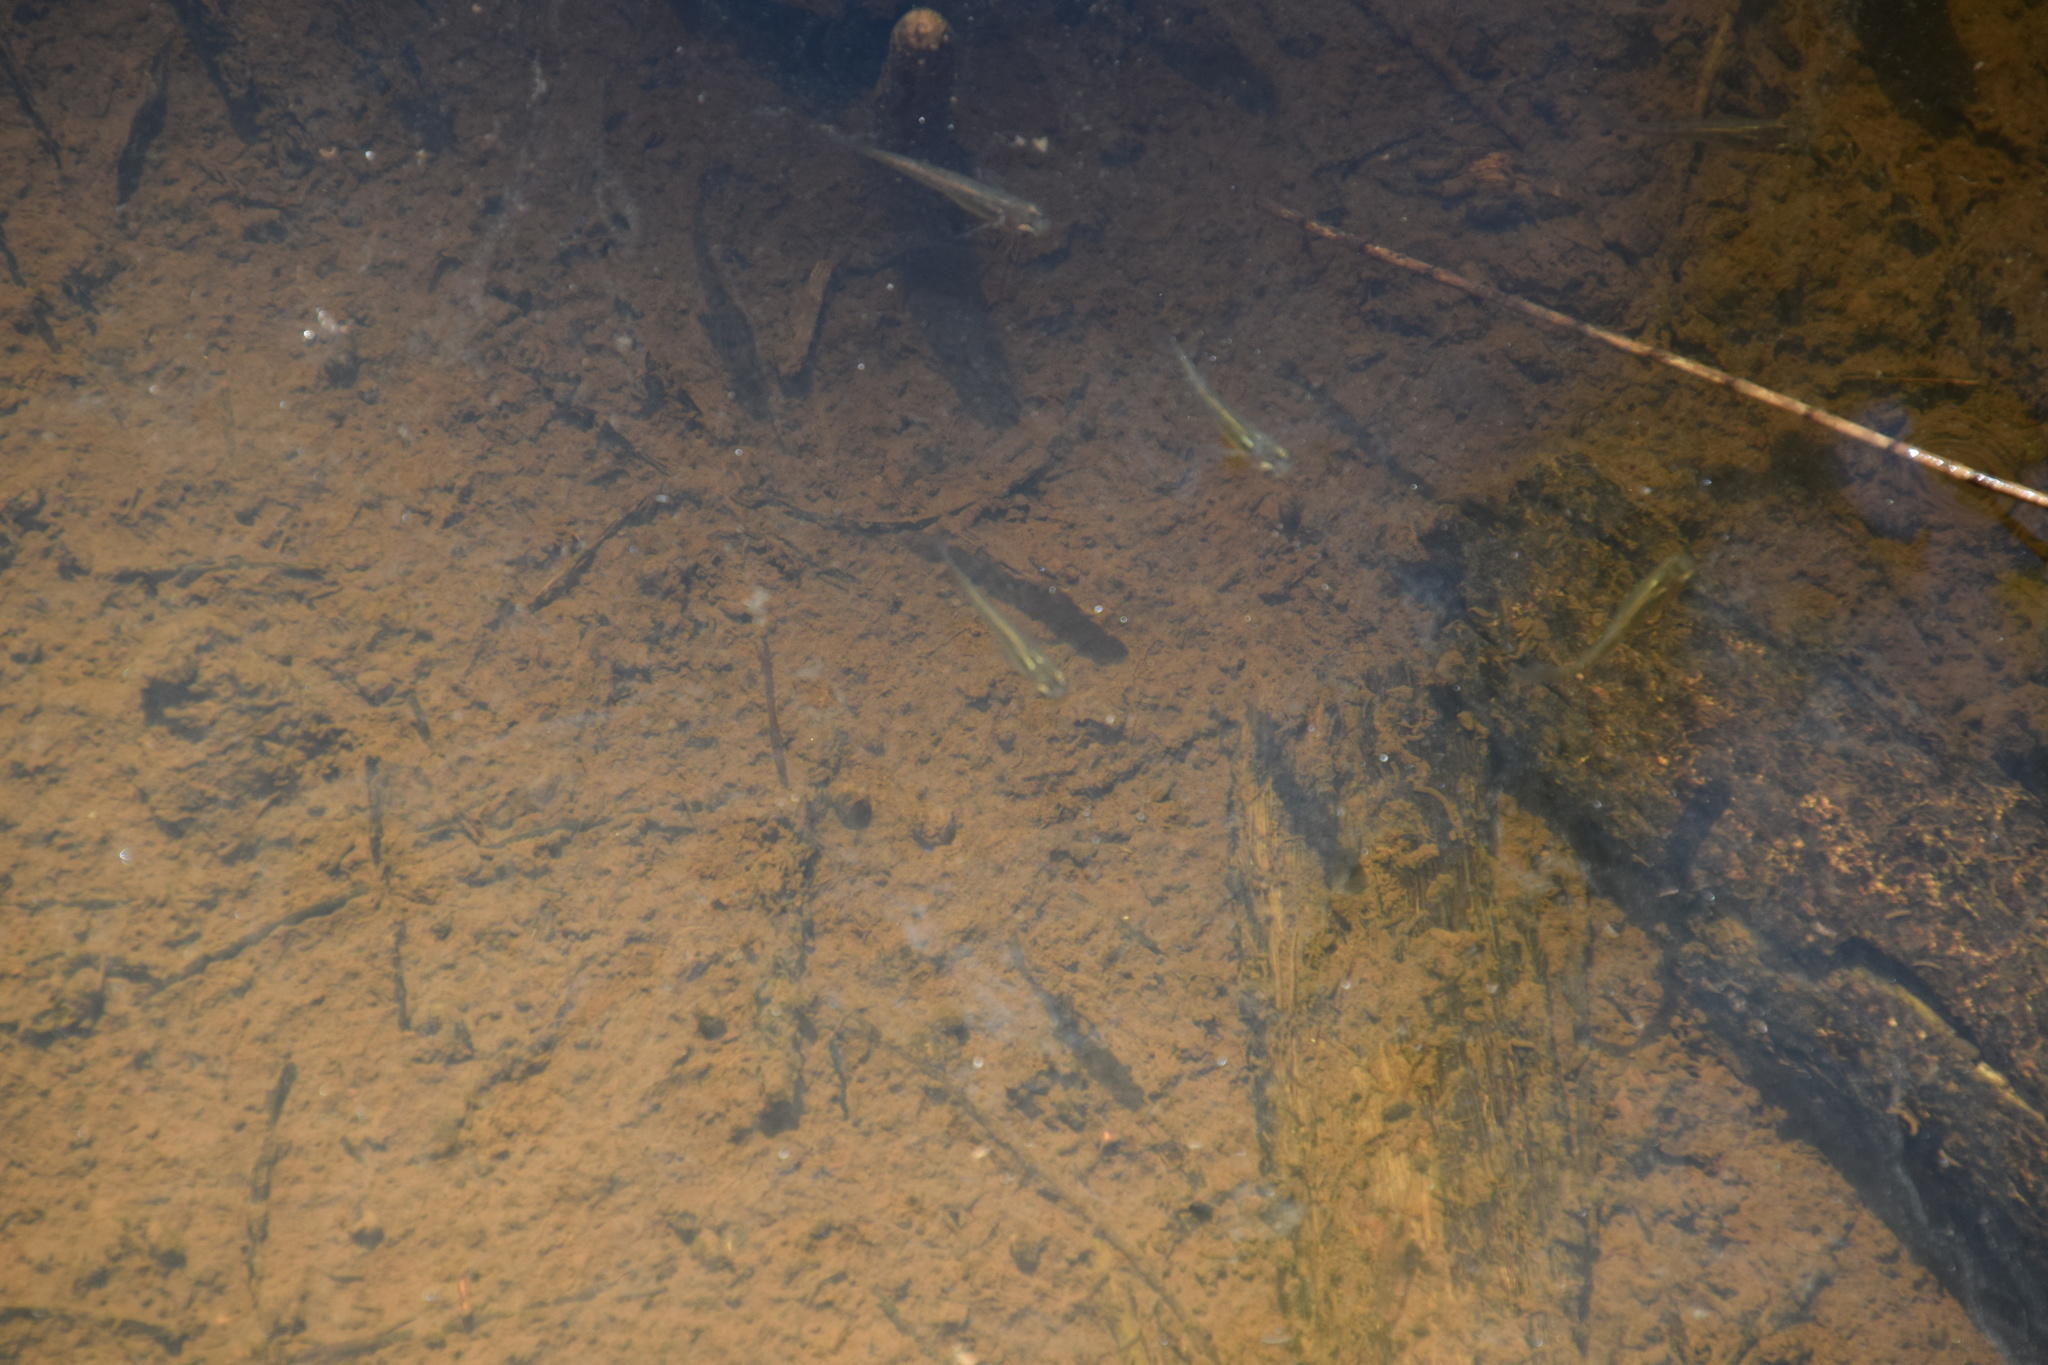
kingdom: Animalia
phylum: Chordata
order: Cyprinodontiformes
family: Poeciliidae
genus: Gambusia
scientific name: Gambusia holbrooki
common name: Eastern mosquitofish
